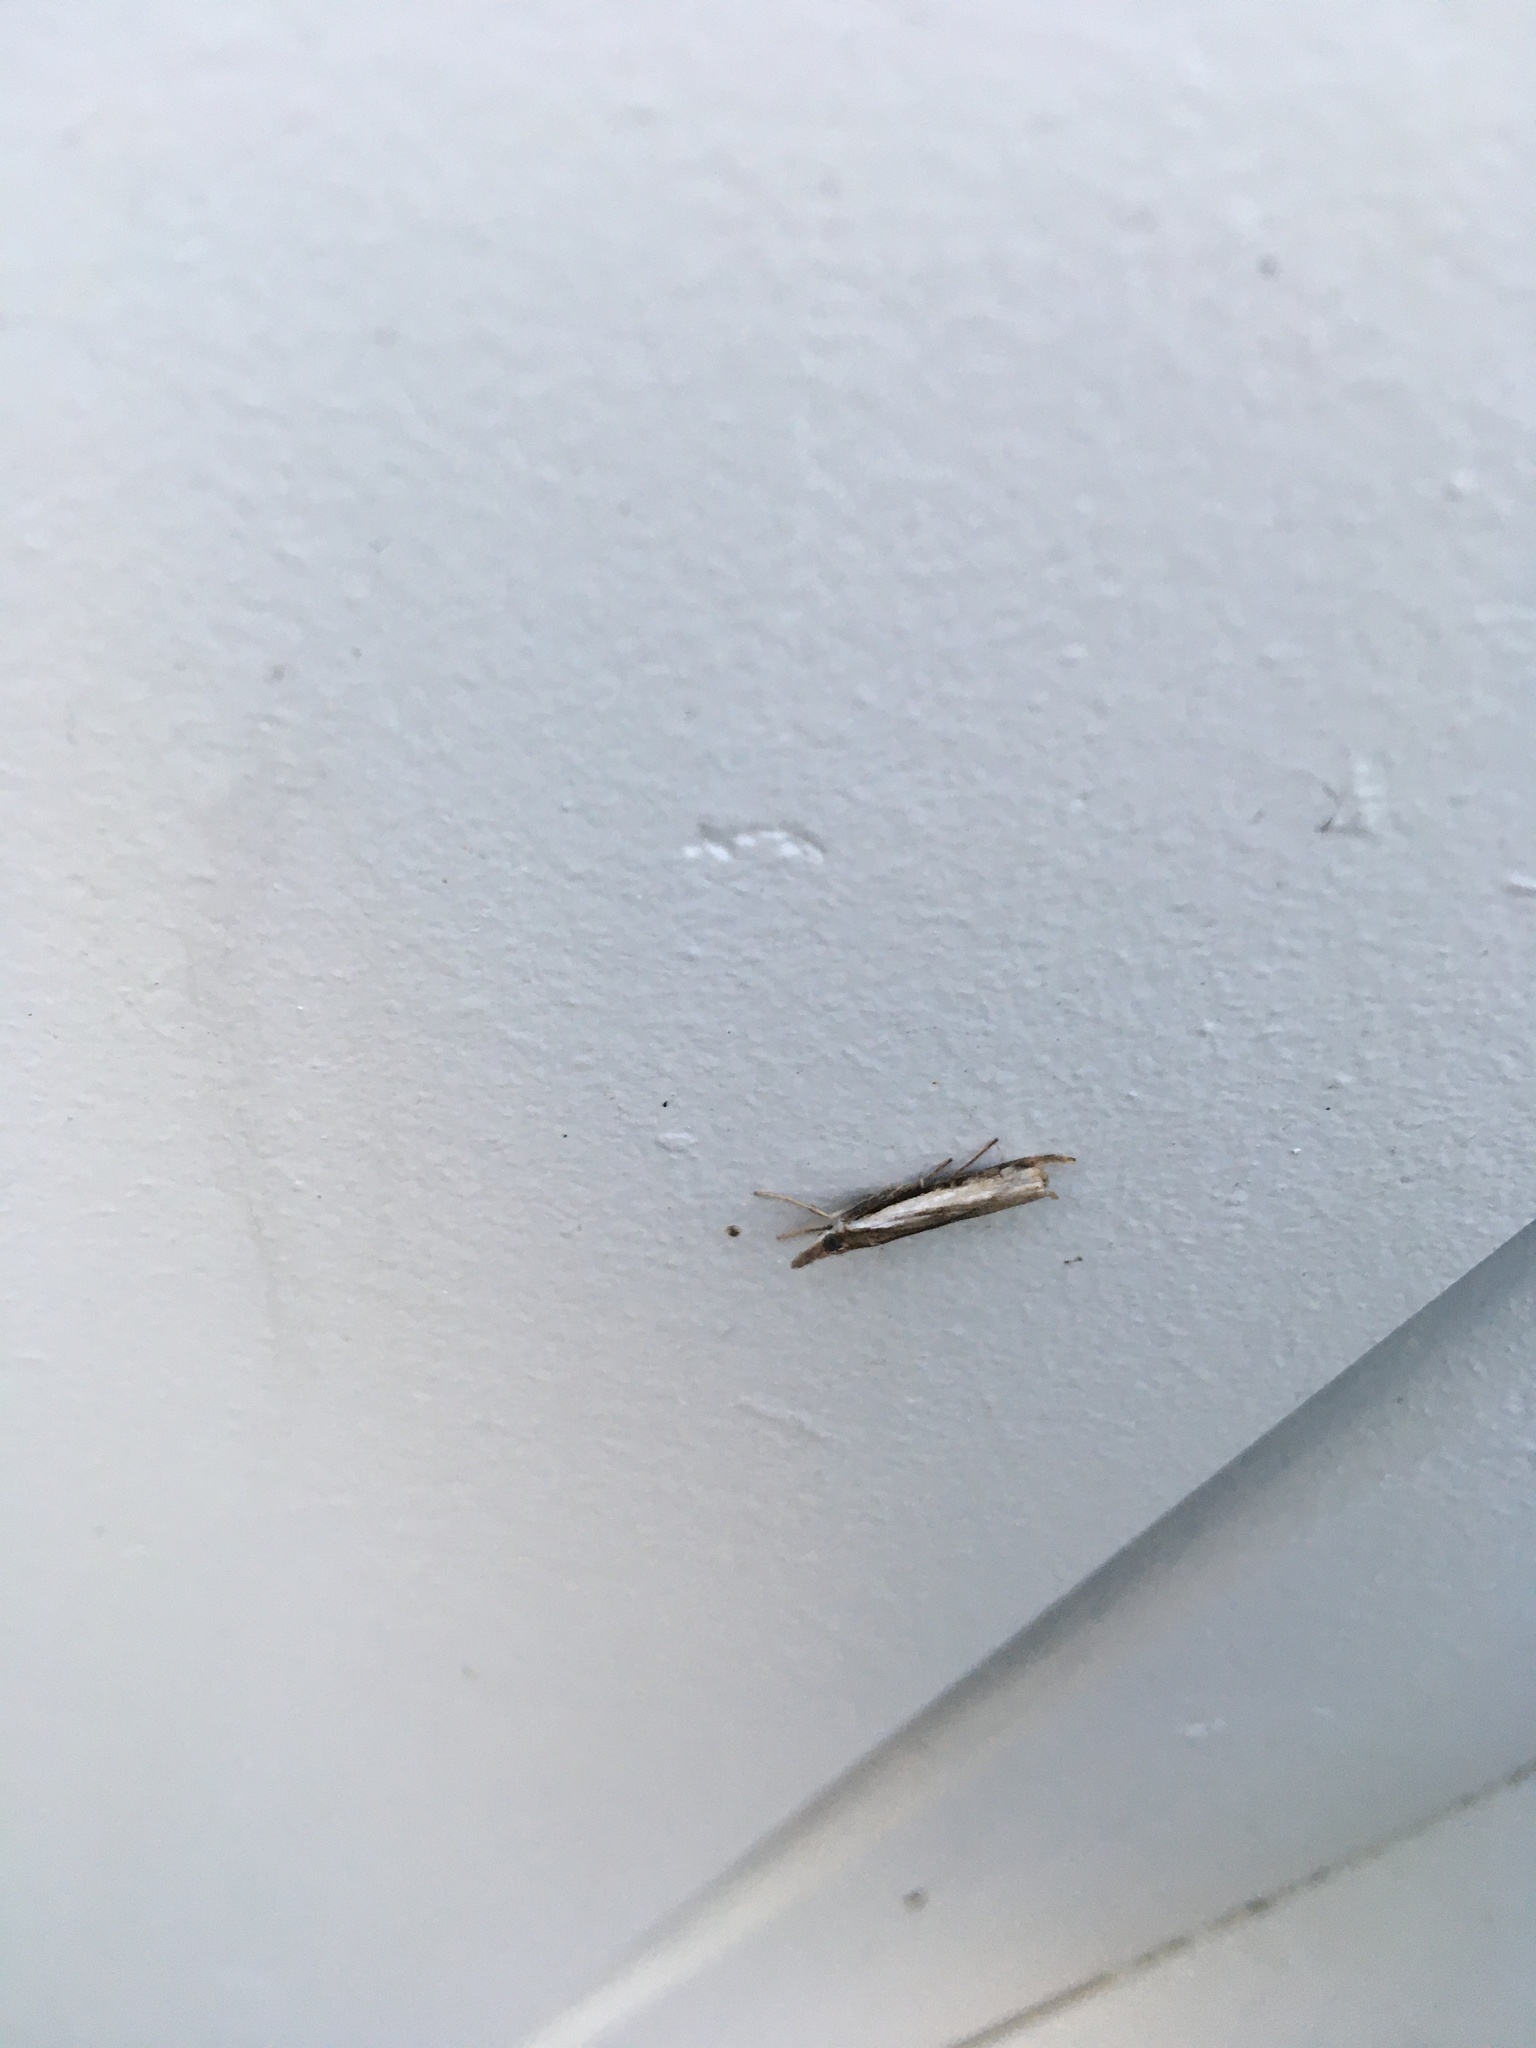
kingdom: Animalia
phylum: Arthropoda
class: Insecta
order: Lepidoptera
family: Crambidae
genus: Orocrambus
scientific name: Orocrambus flexuosellus
